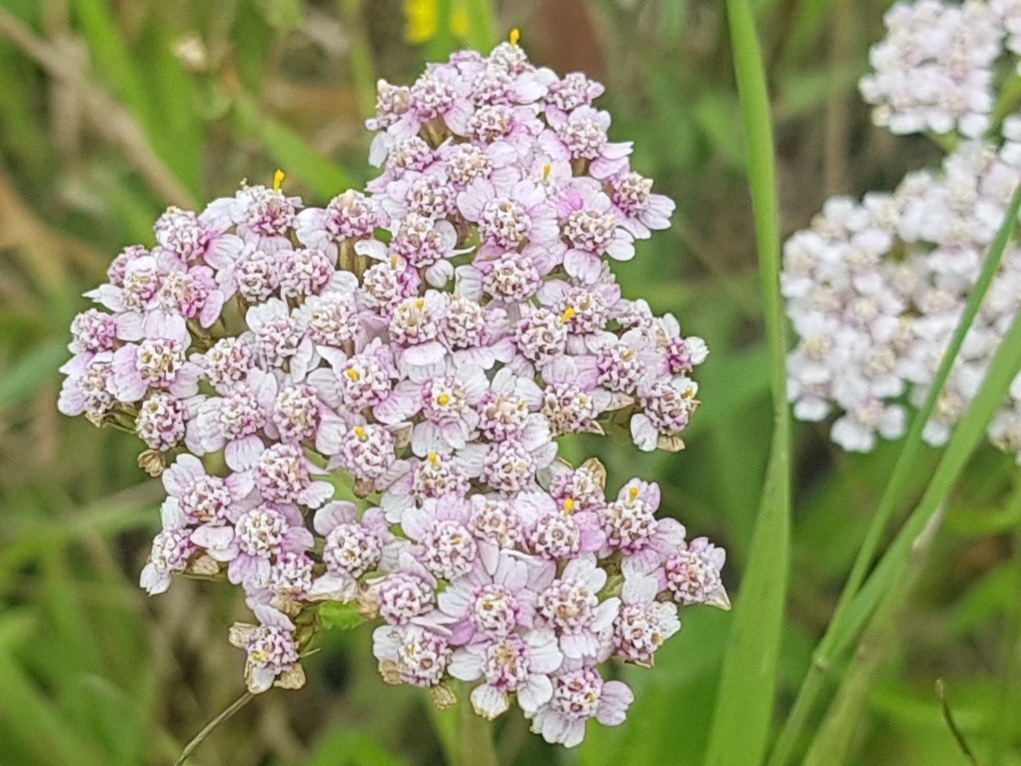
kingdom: Plantae
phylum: Tracheophyta
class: Magnoliopsida
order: Asterales
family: Asteraceae
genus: Achillea
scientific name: Achillea millefolium
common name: Yarrow
